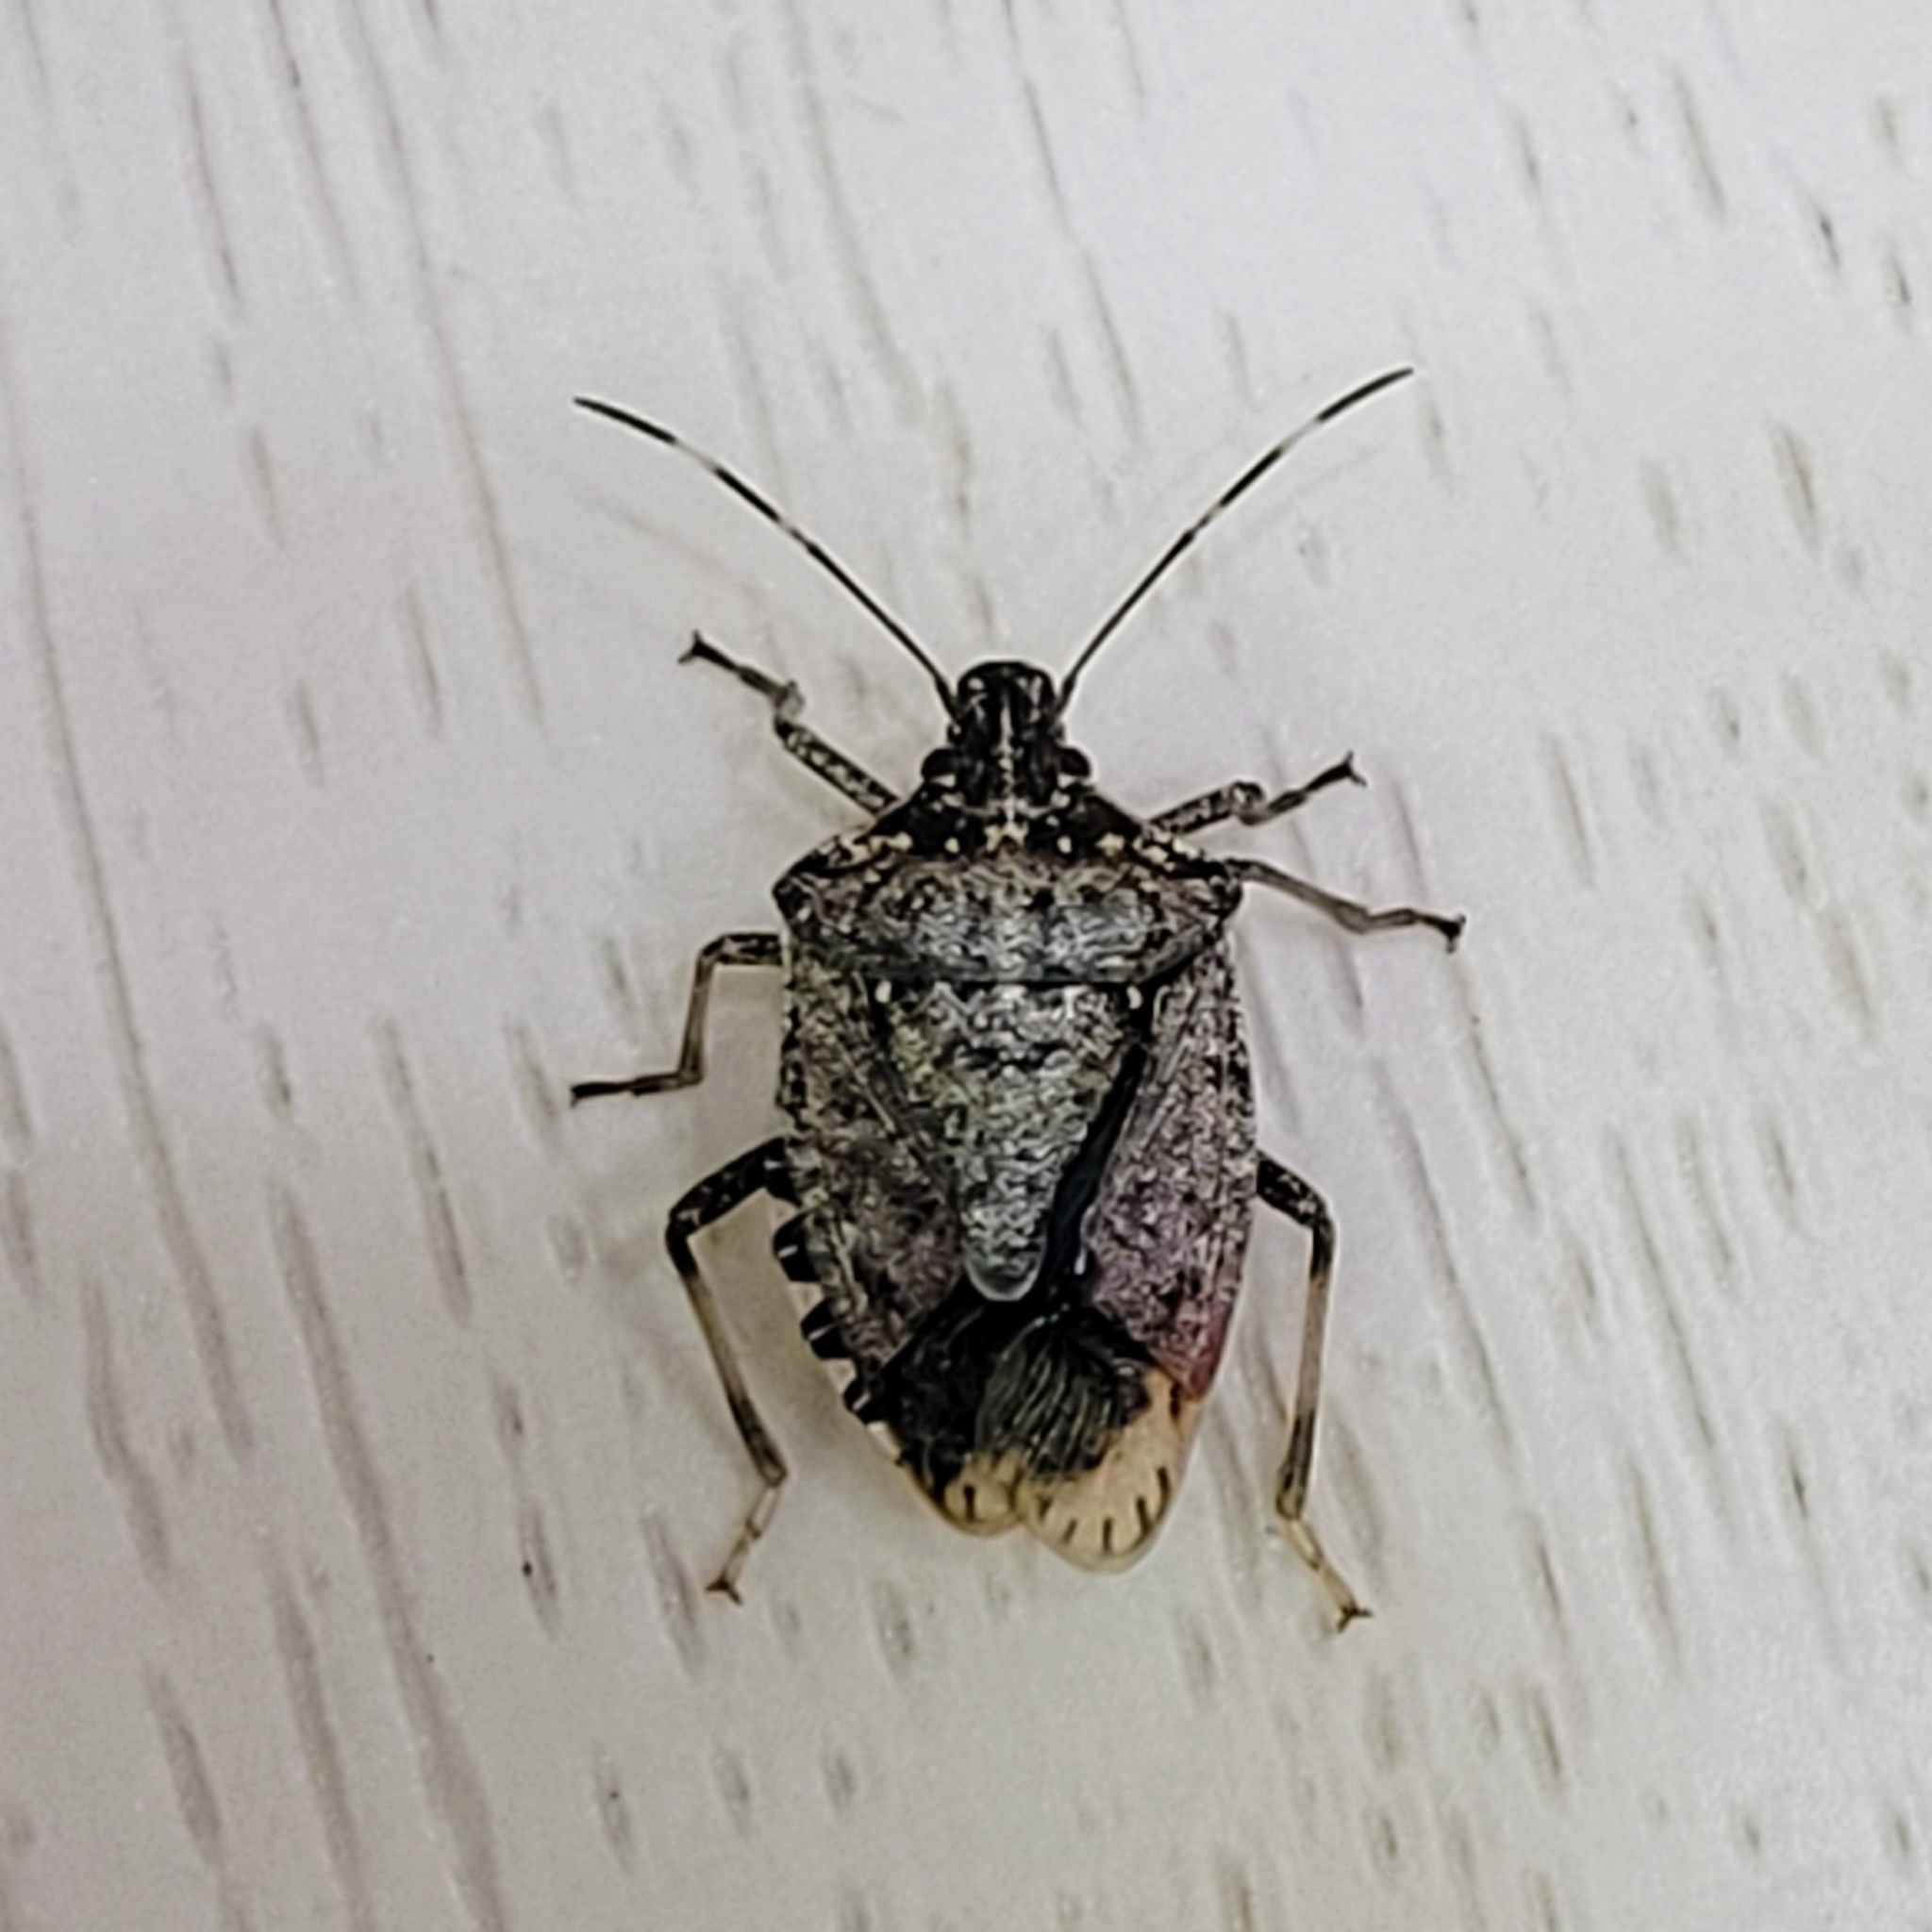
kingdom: Animalia
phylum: Arthropoda
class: Insecta
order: Hemiptera
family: Pentatomidae
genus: Halyomorpha
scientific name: Halyomorpha halys
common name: Brown marmorated stink bug
